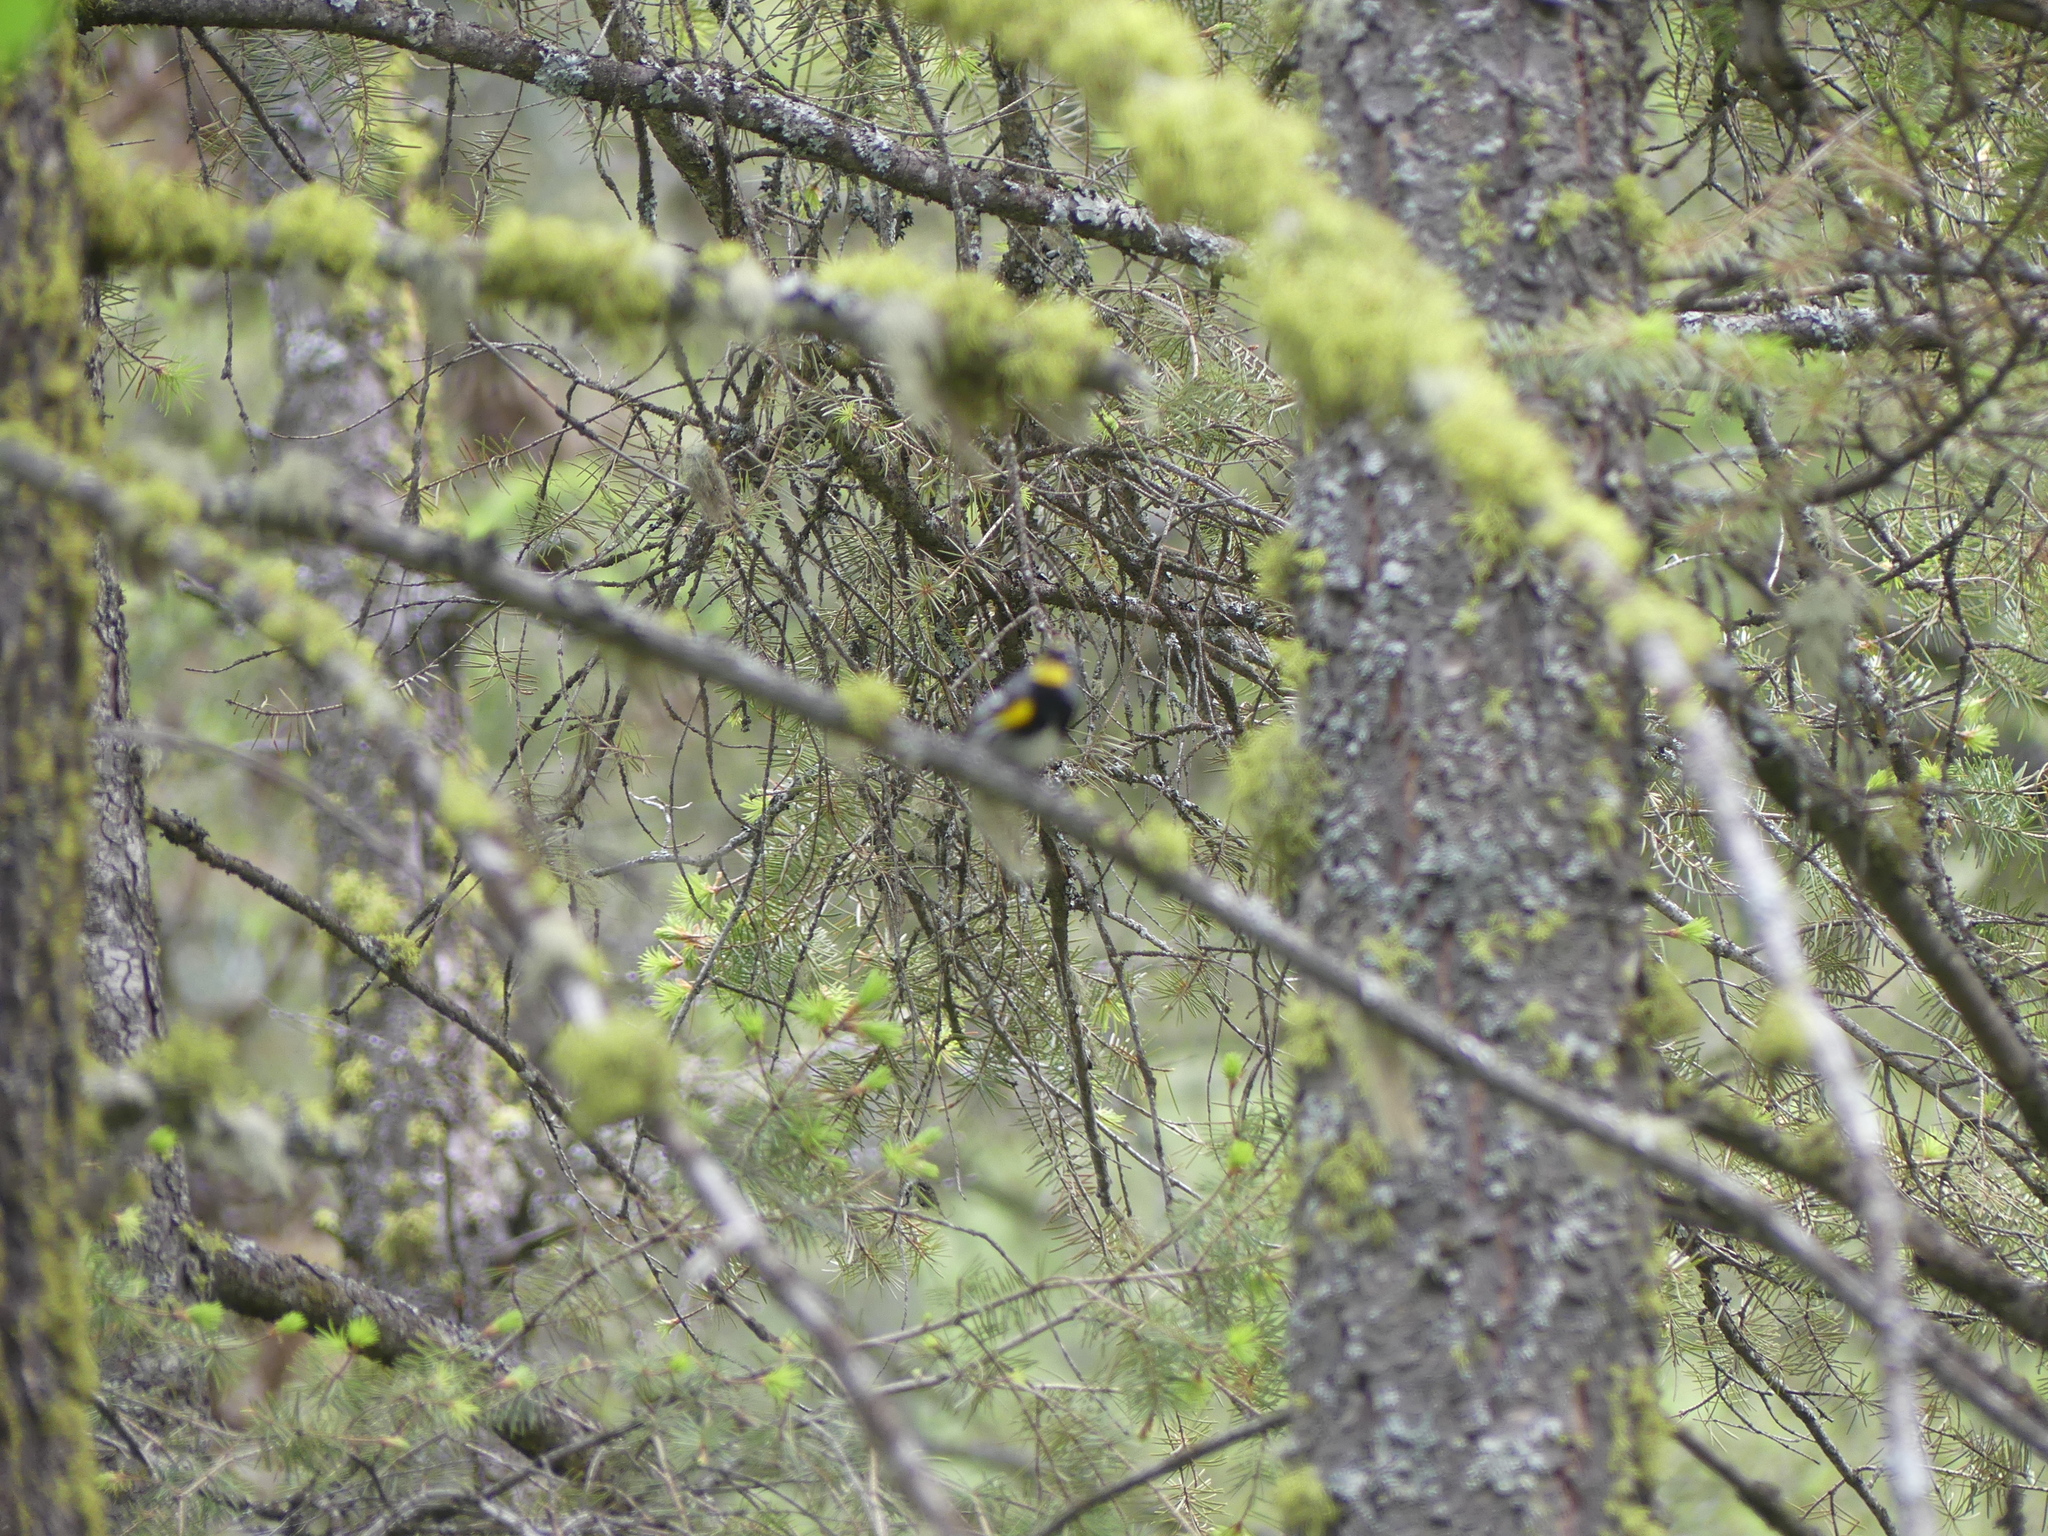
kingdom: Animalia
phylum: Chordata
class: Aves
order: Passeriformes
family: Parulidae
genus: Setophaga
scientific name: Setophaga auduboni
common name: Audubon's warbler
